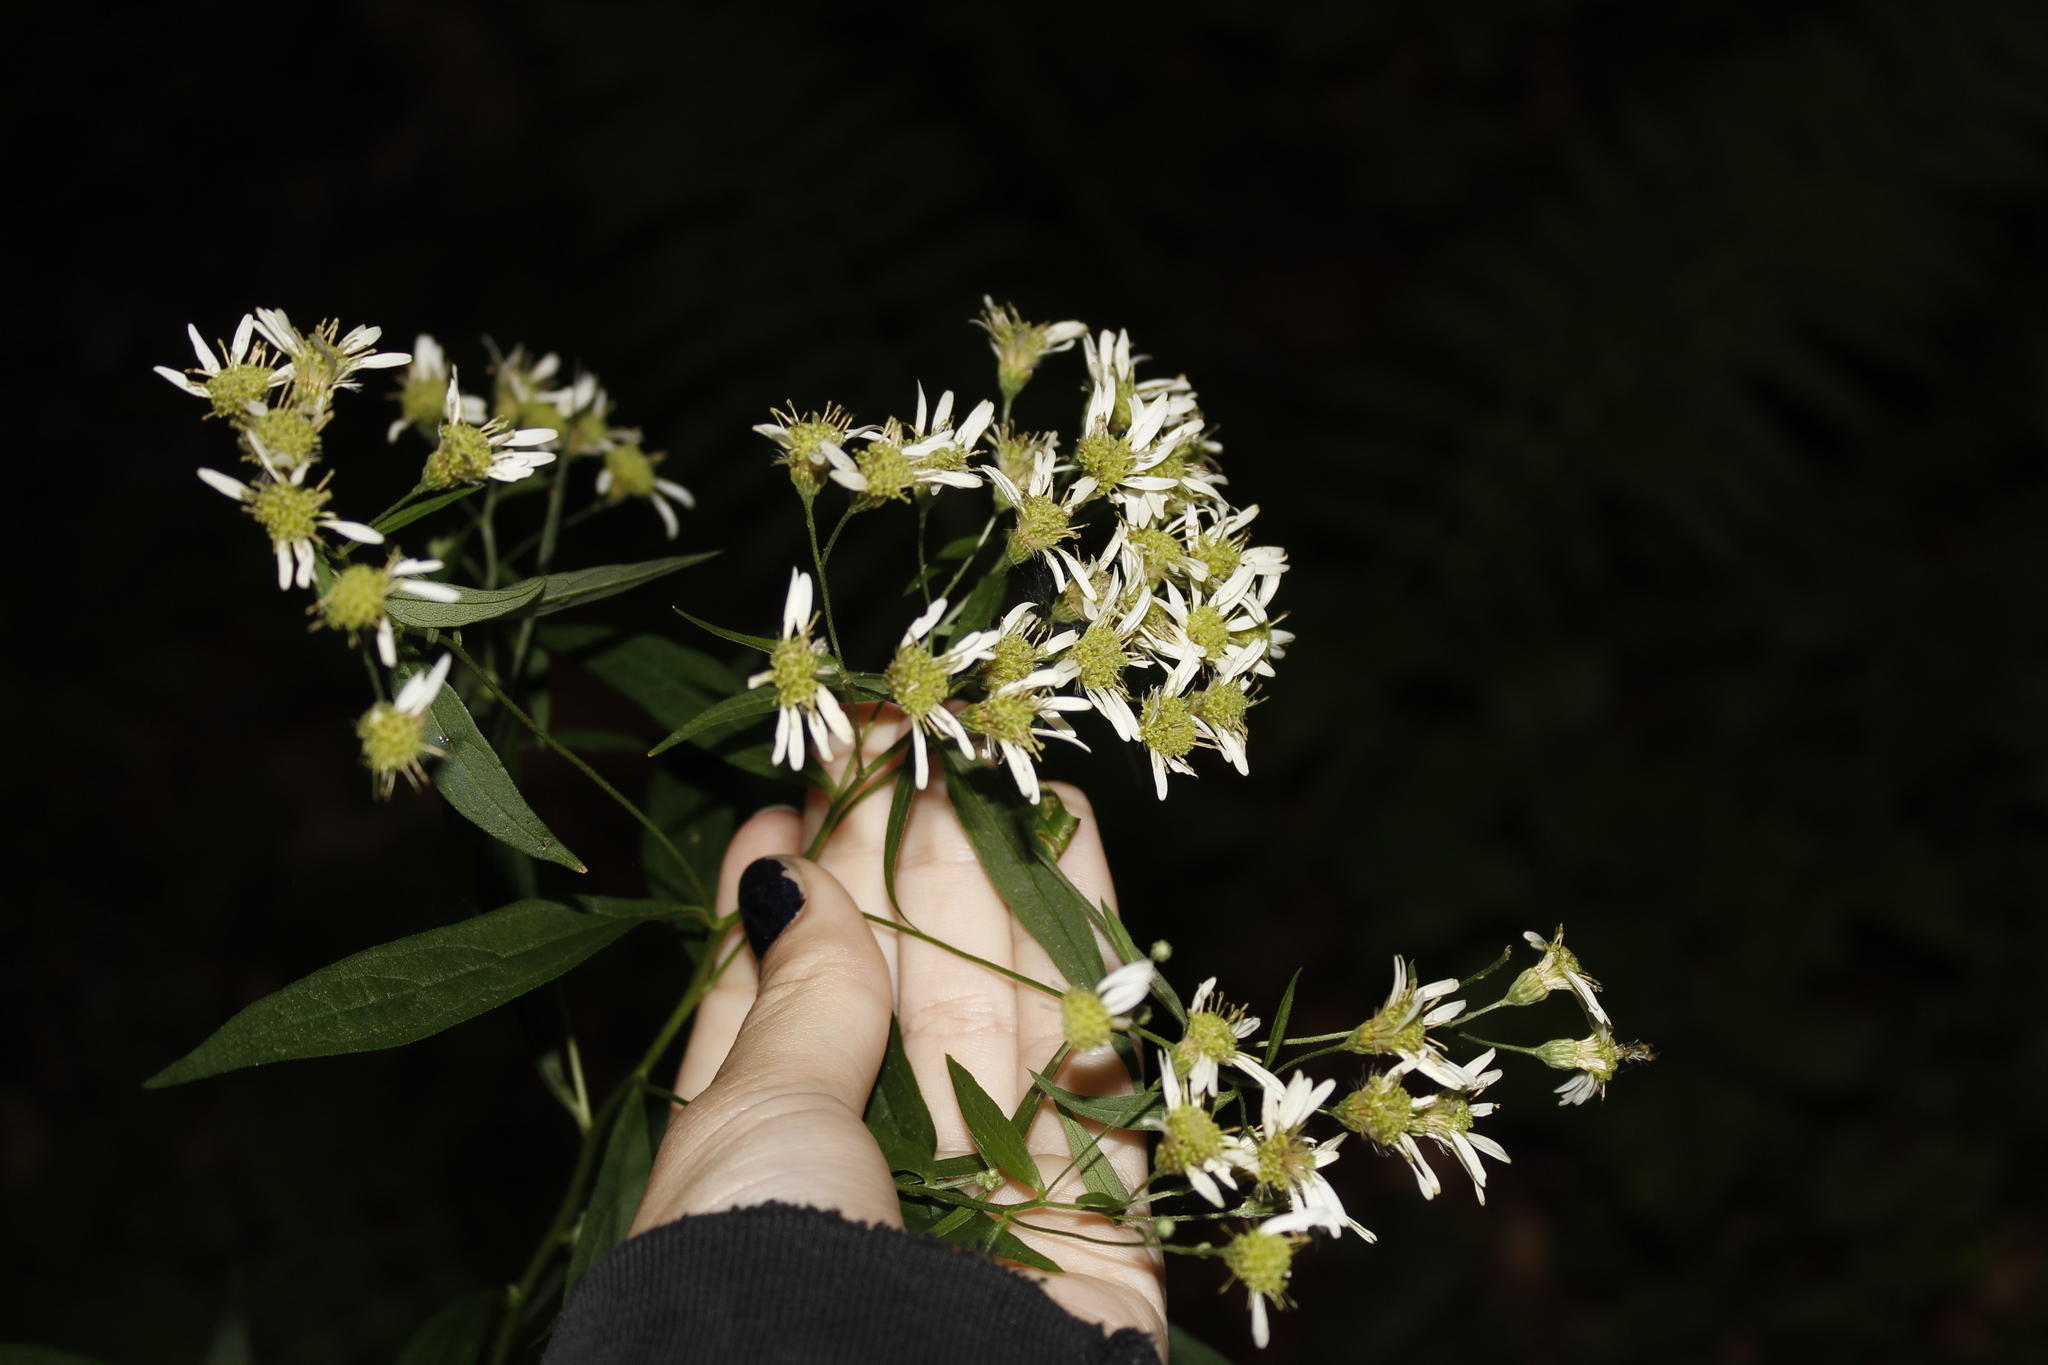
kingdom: Plantae
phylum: Tracheophyta
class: Magnoliopsida
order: Asterales
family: Asteraceae
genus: Doellingeria
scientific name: Doellingeria umbellata
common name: Flat-top white aster
